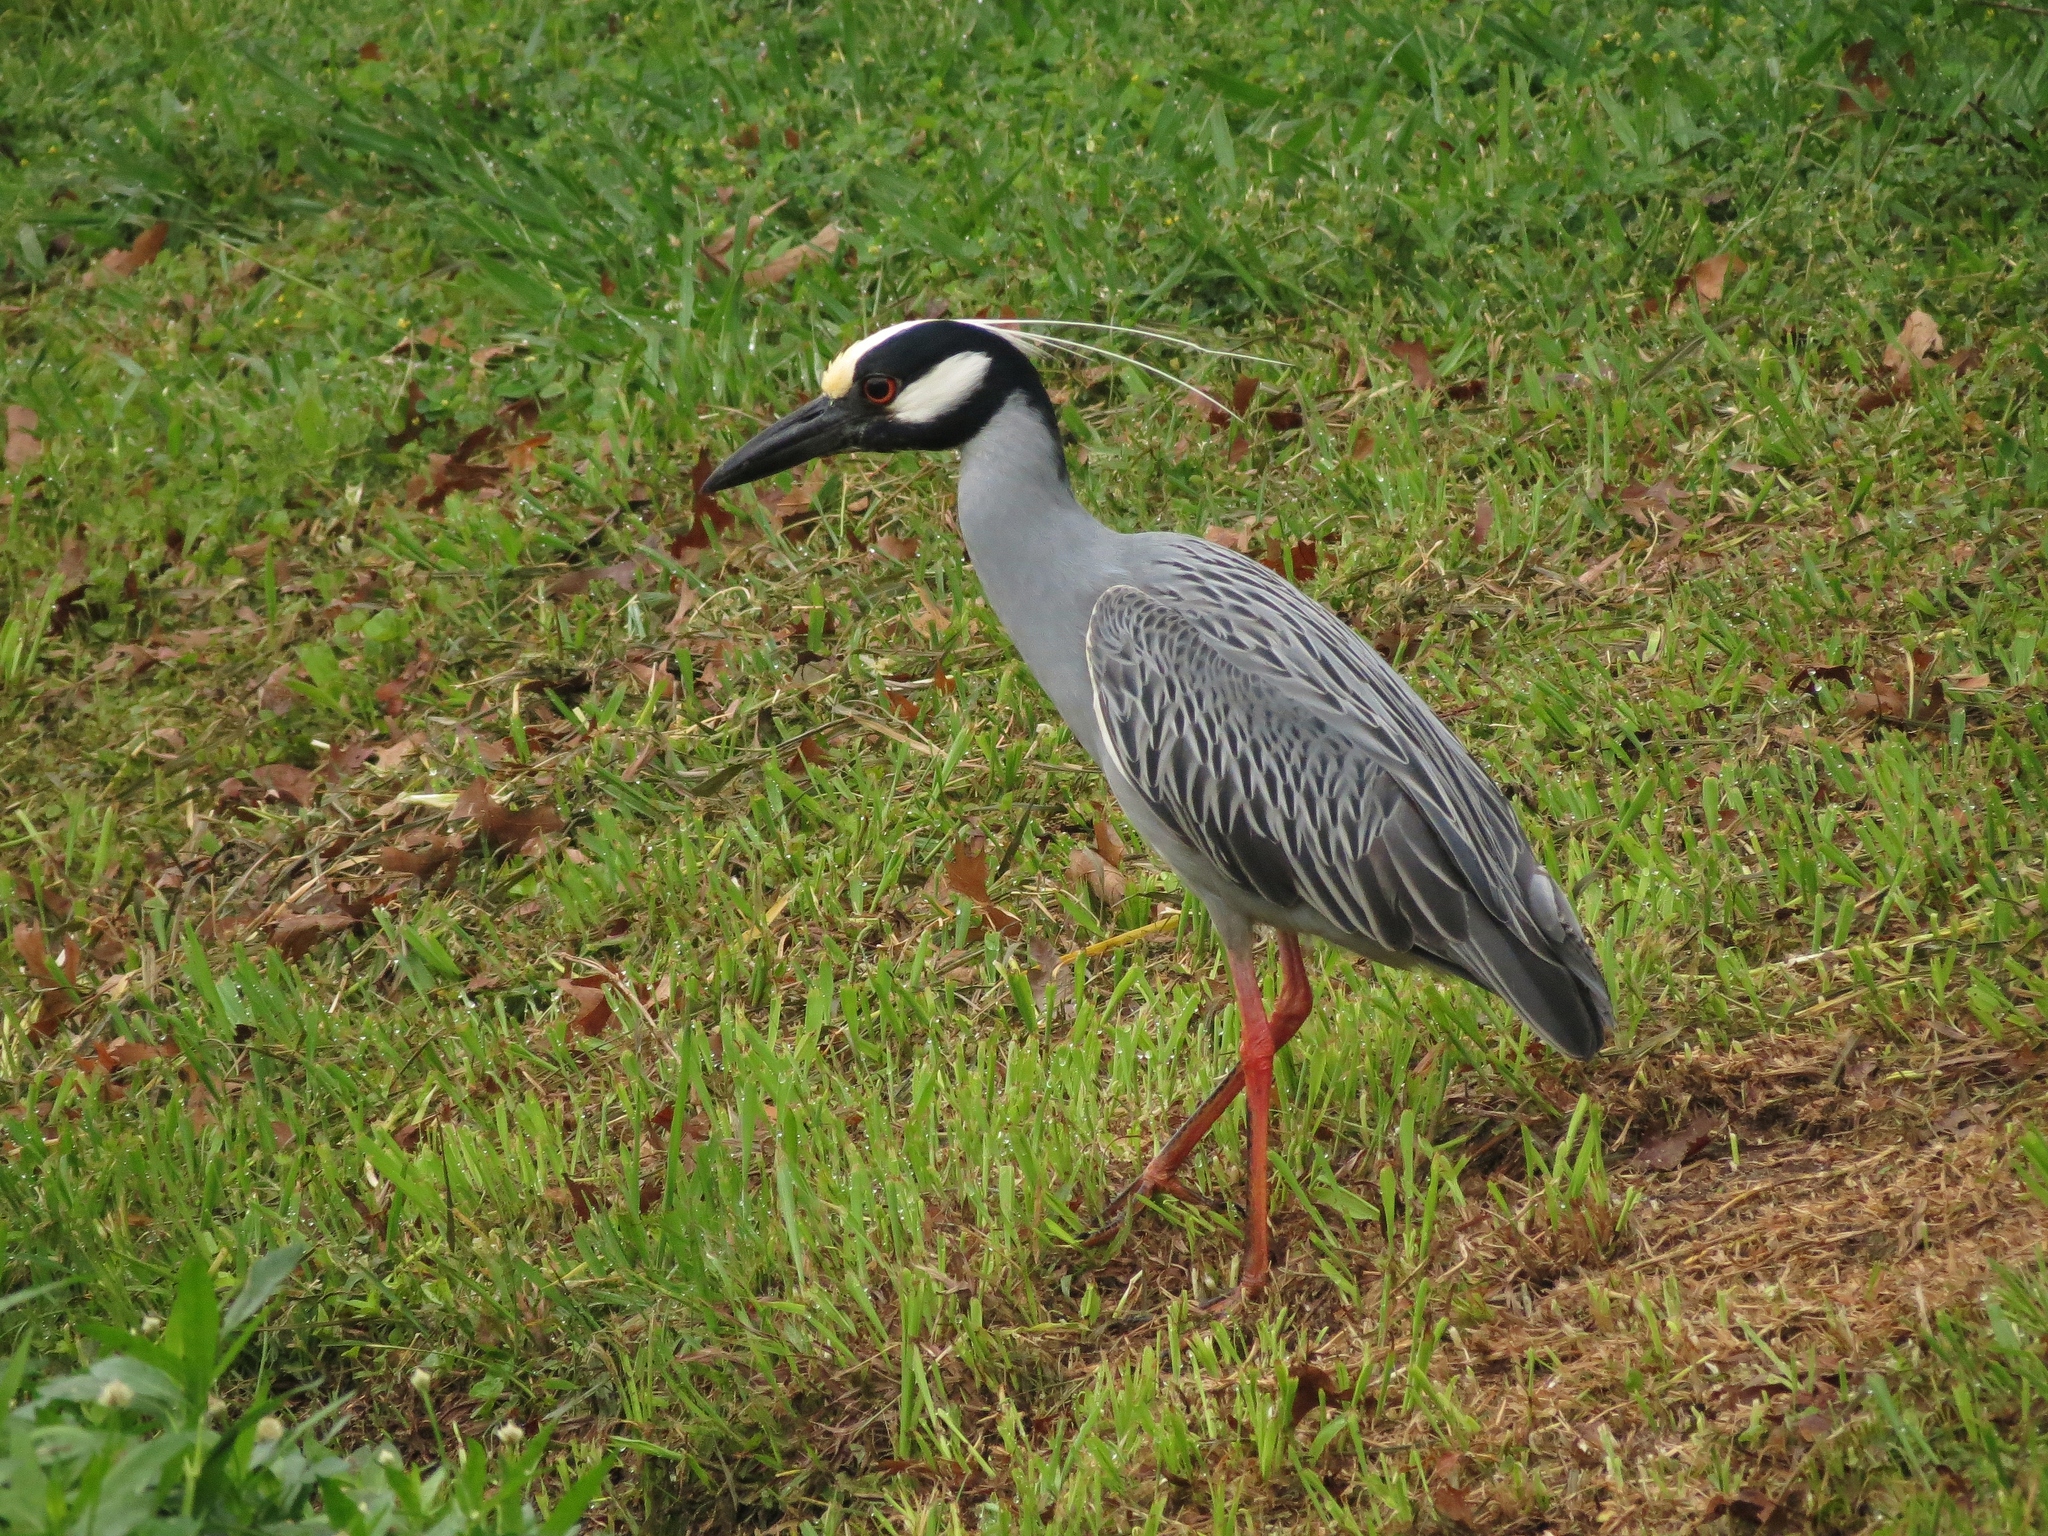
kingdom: Animalia
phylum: Chordata
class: Aves
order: Pelecaniformes
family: Ardeidae
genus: Nyctanassa
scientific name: Nyctanassa violacea
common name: Yellow-crowned night heron
